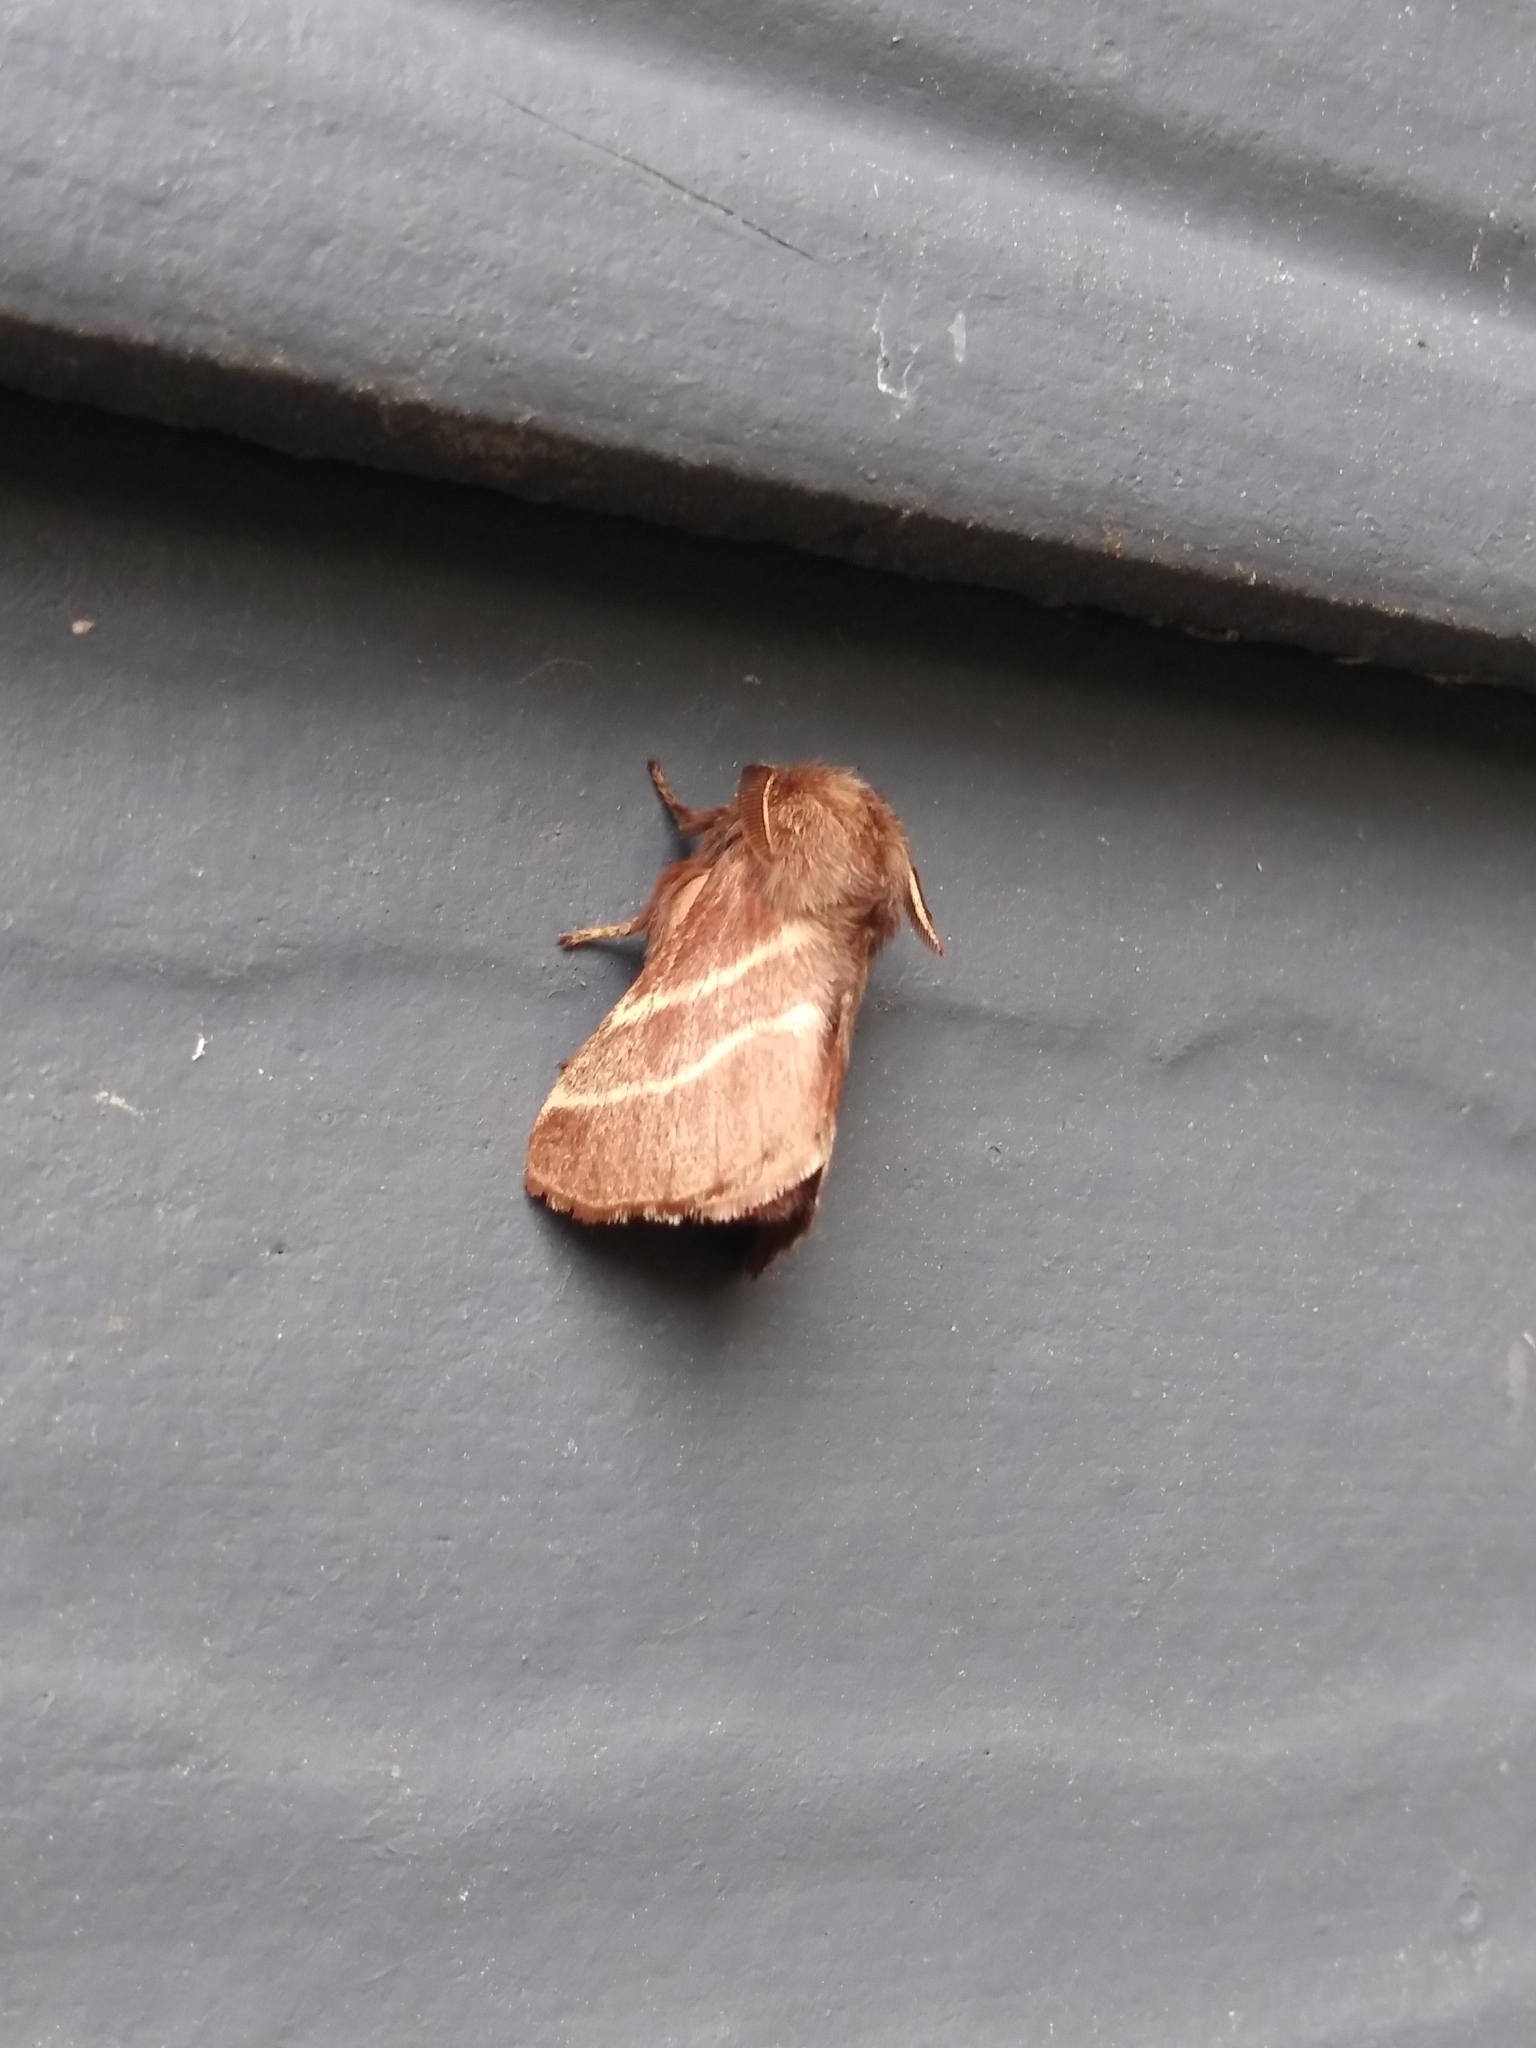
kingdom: Animalia
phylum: Arthropoda
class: Insecta
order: Lepidoptera
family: Lasiocampidae
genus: Malacosoma
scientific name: Malacosoma americana
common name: Eastern tent caterpillar moth
